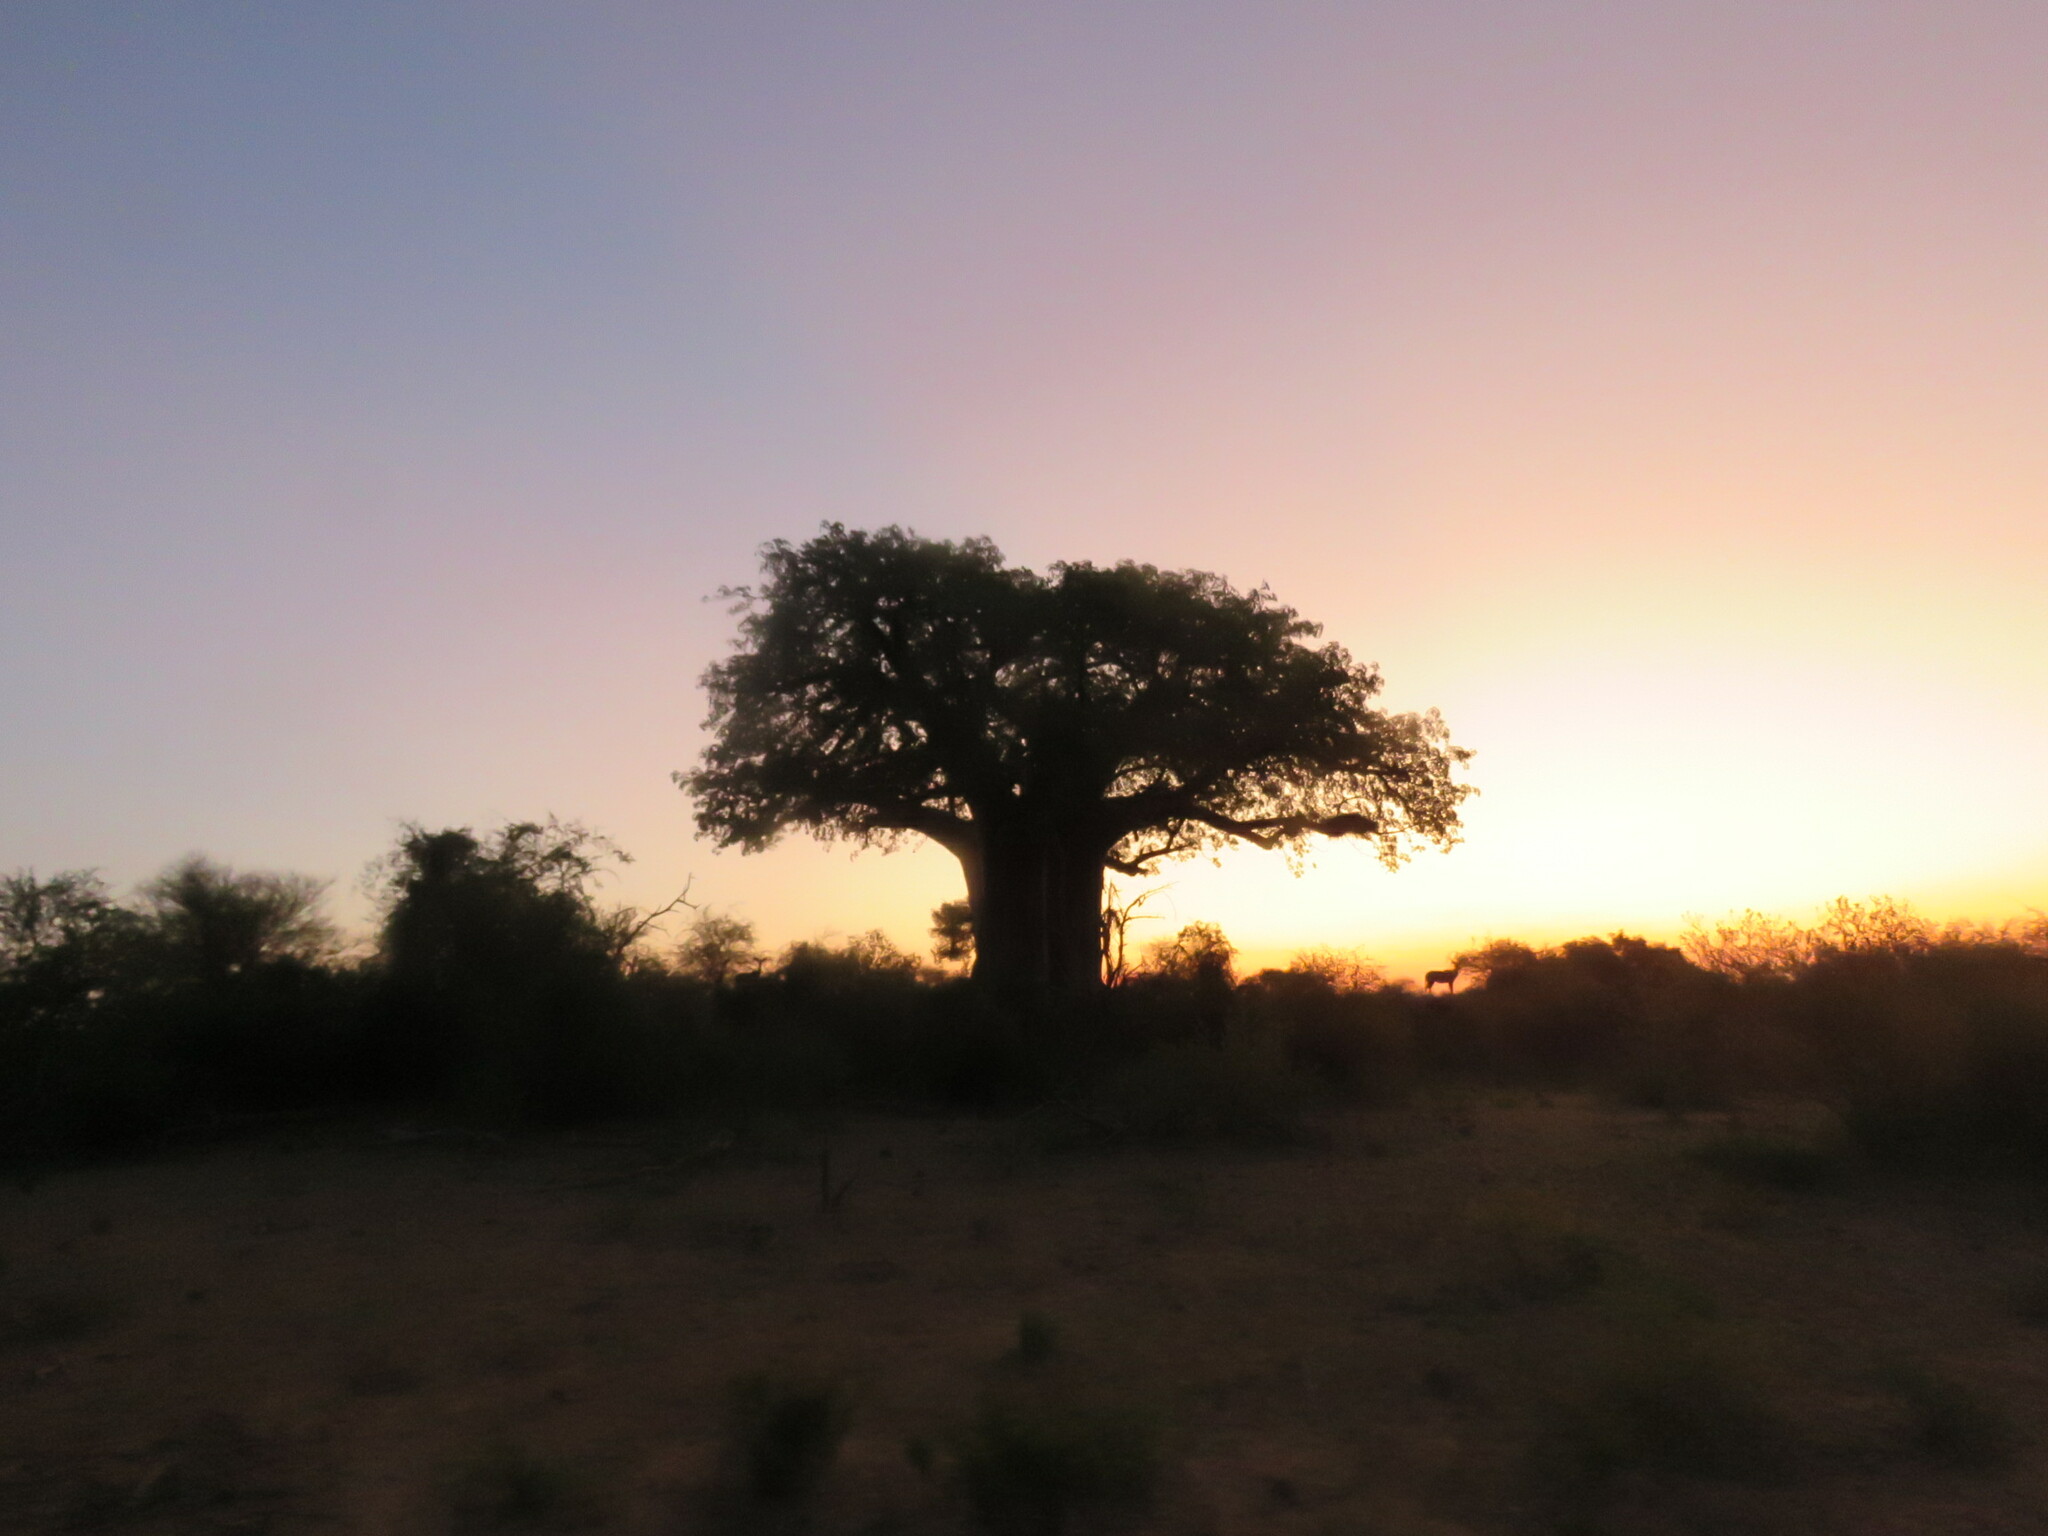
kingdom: Plantae
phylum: Tracheophyta
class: Magnoliopsida
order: Malvales
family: Malvaceae
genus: Adansonia
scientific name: Adansonia digitata
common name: Dead-rat-tree
